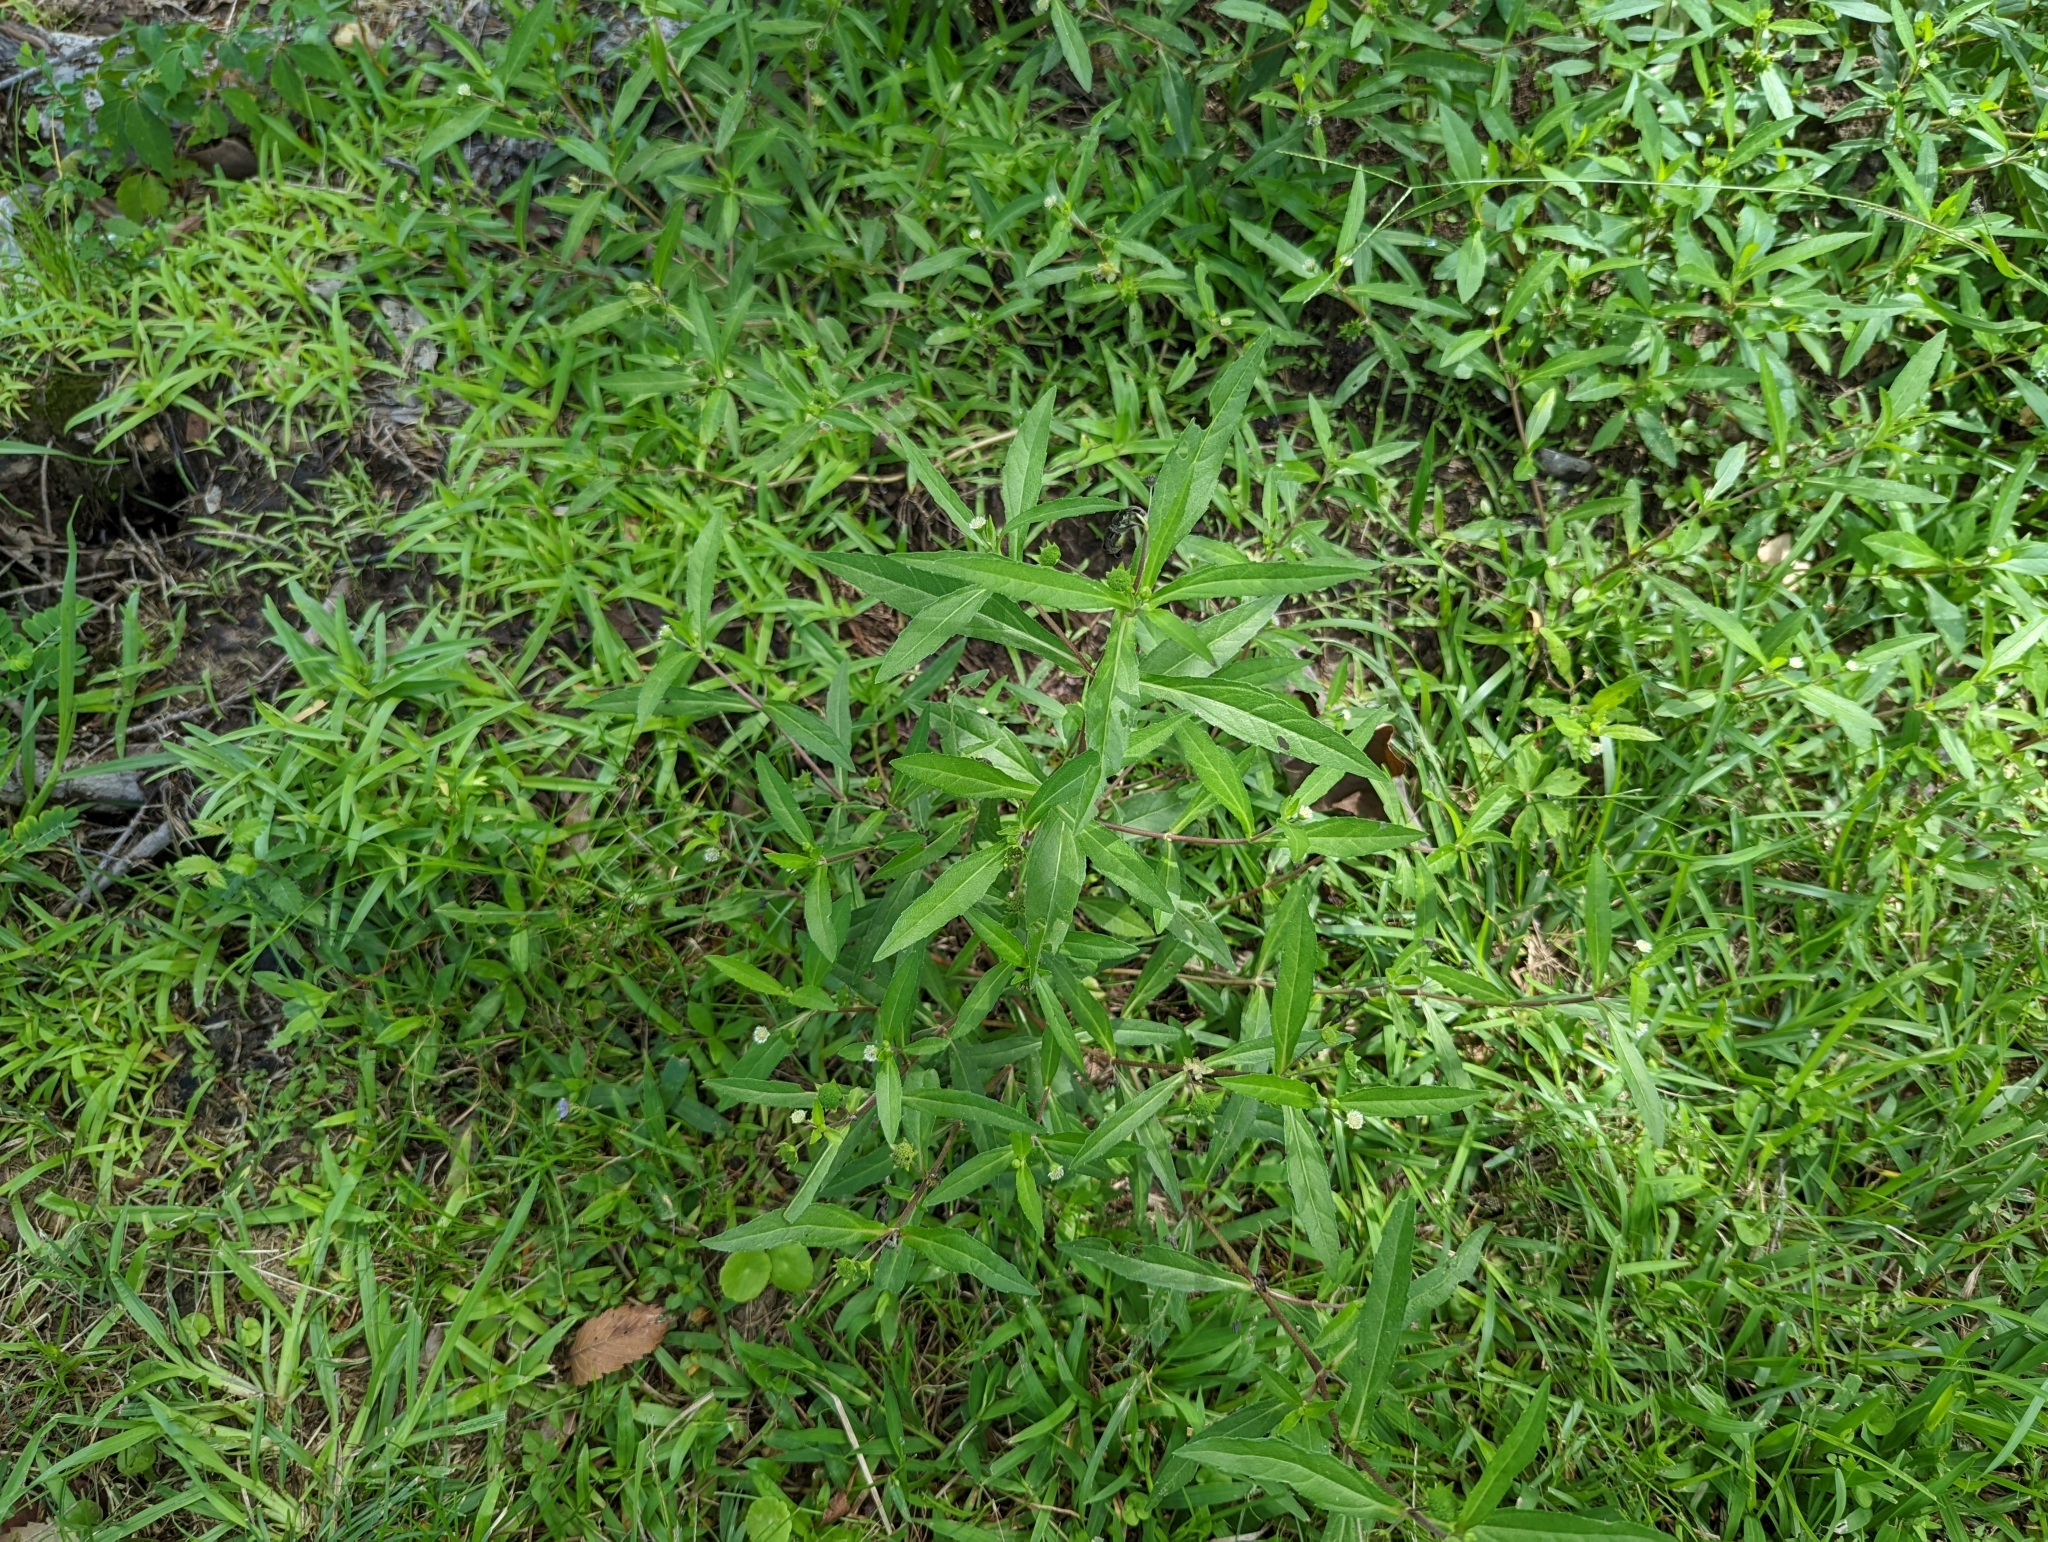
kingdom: Plantae
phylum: Tracheophyta
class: Magnoliopsida
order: Asterales
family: Asteraceae
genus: Eclipta
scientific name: Eclipta prostrata
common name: False daisy
